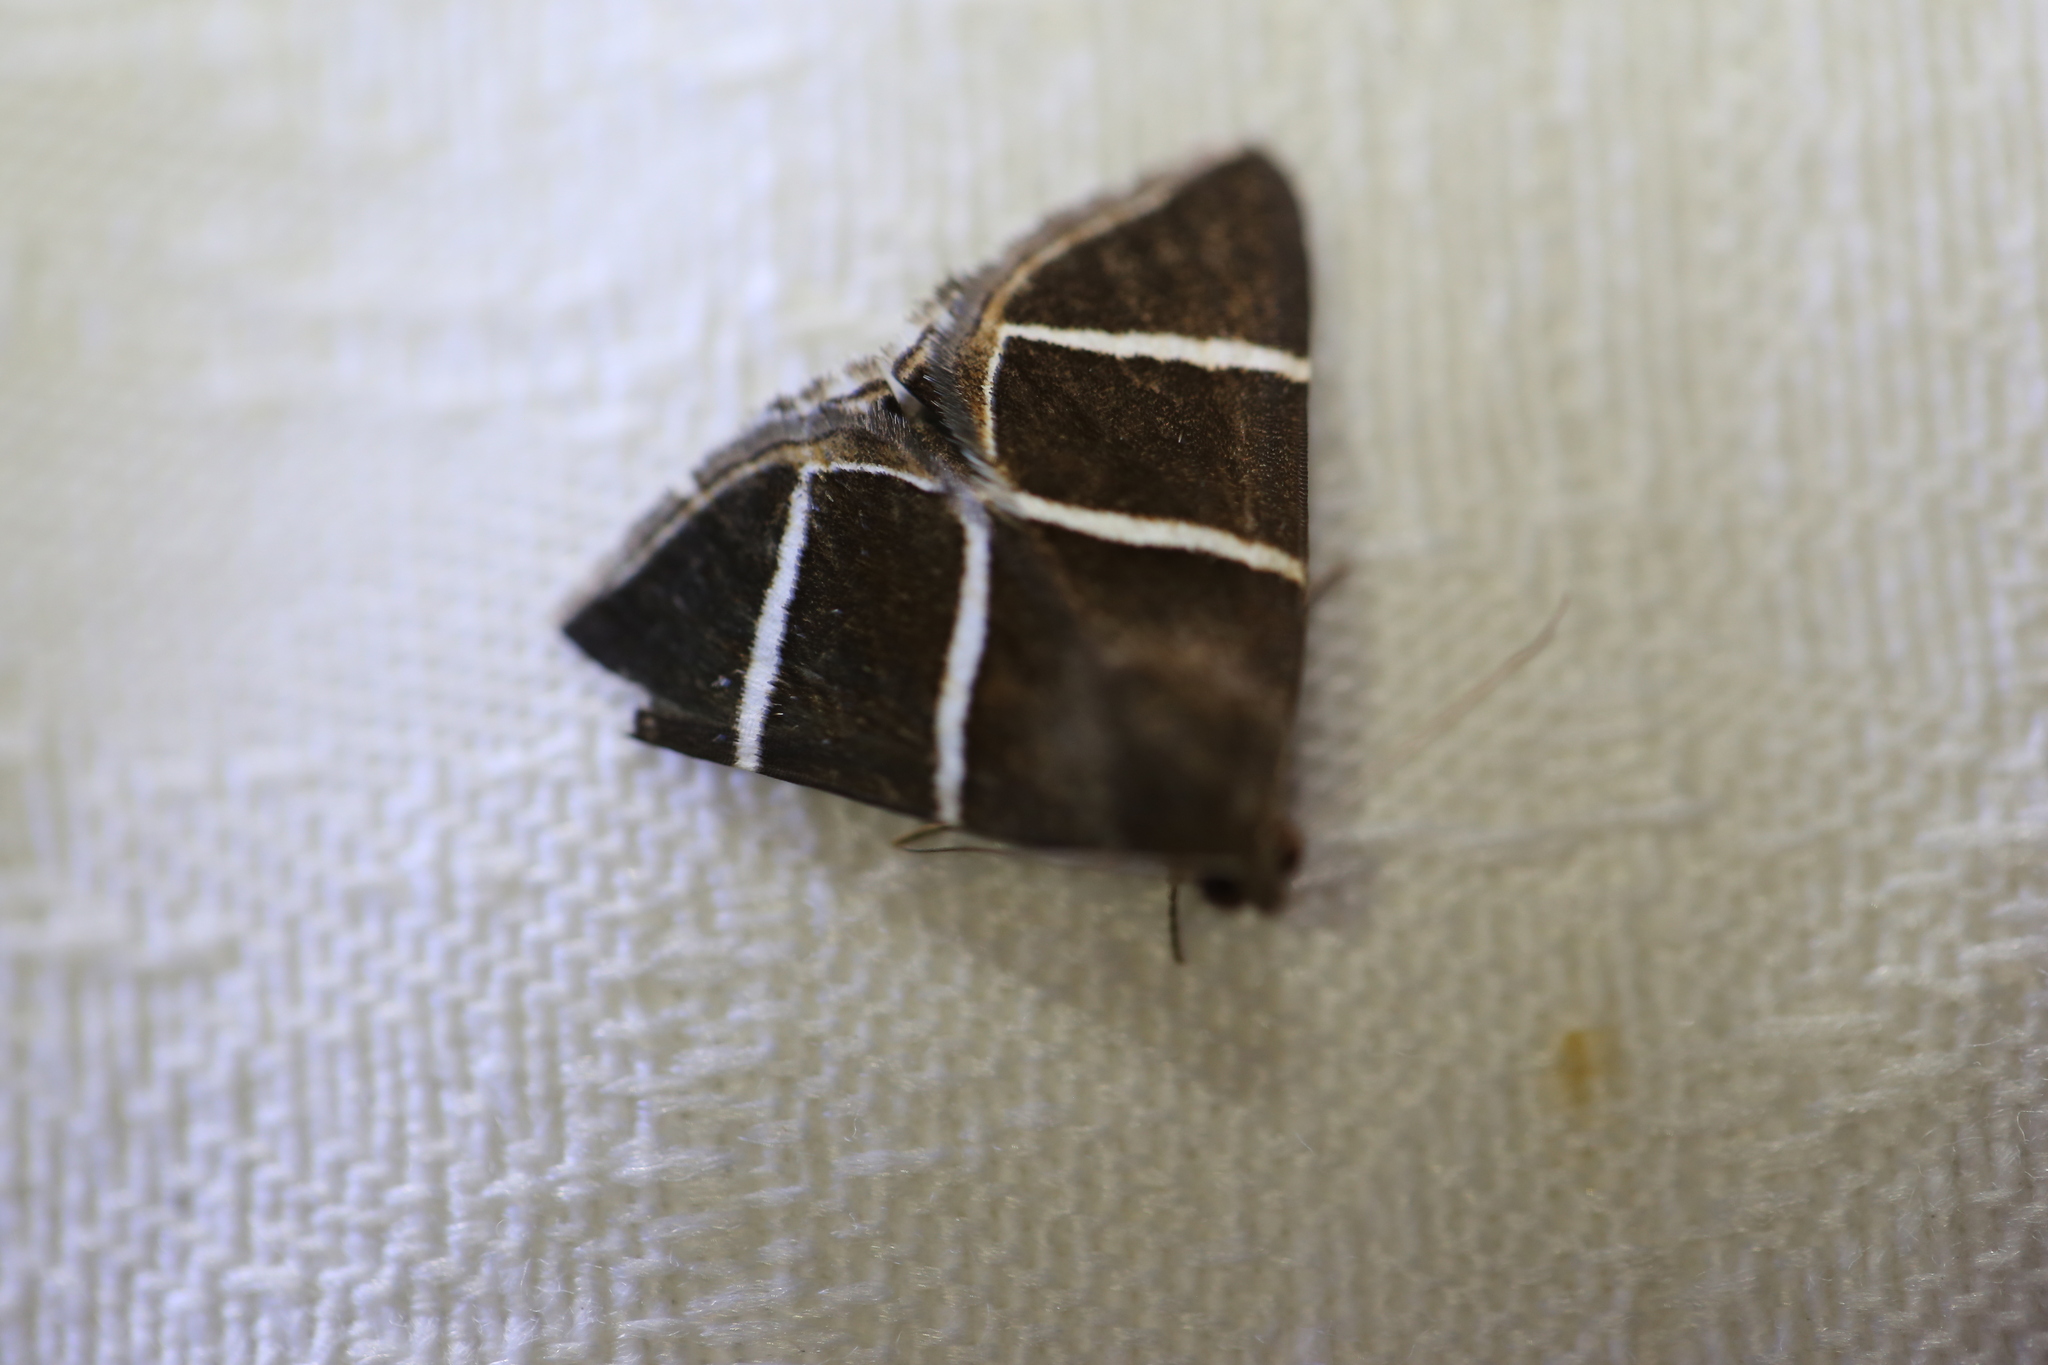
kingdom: Animalia
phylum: Arthropoda
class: Insecta
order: Lepidoptera
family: Erebidae
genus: Grammodes
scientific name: Grammodes justa
